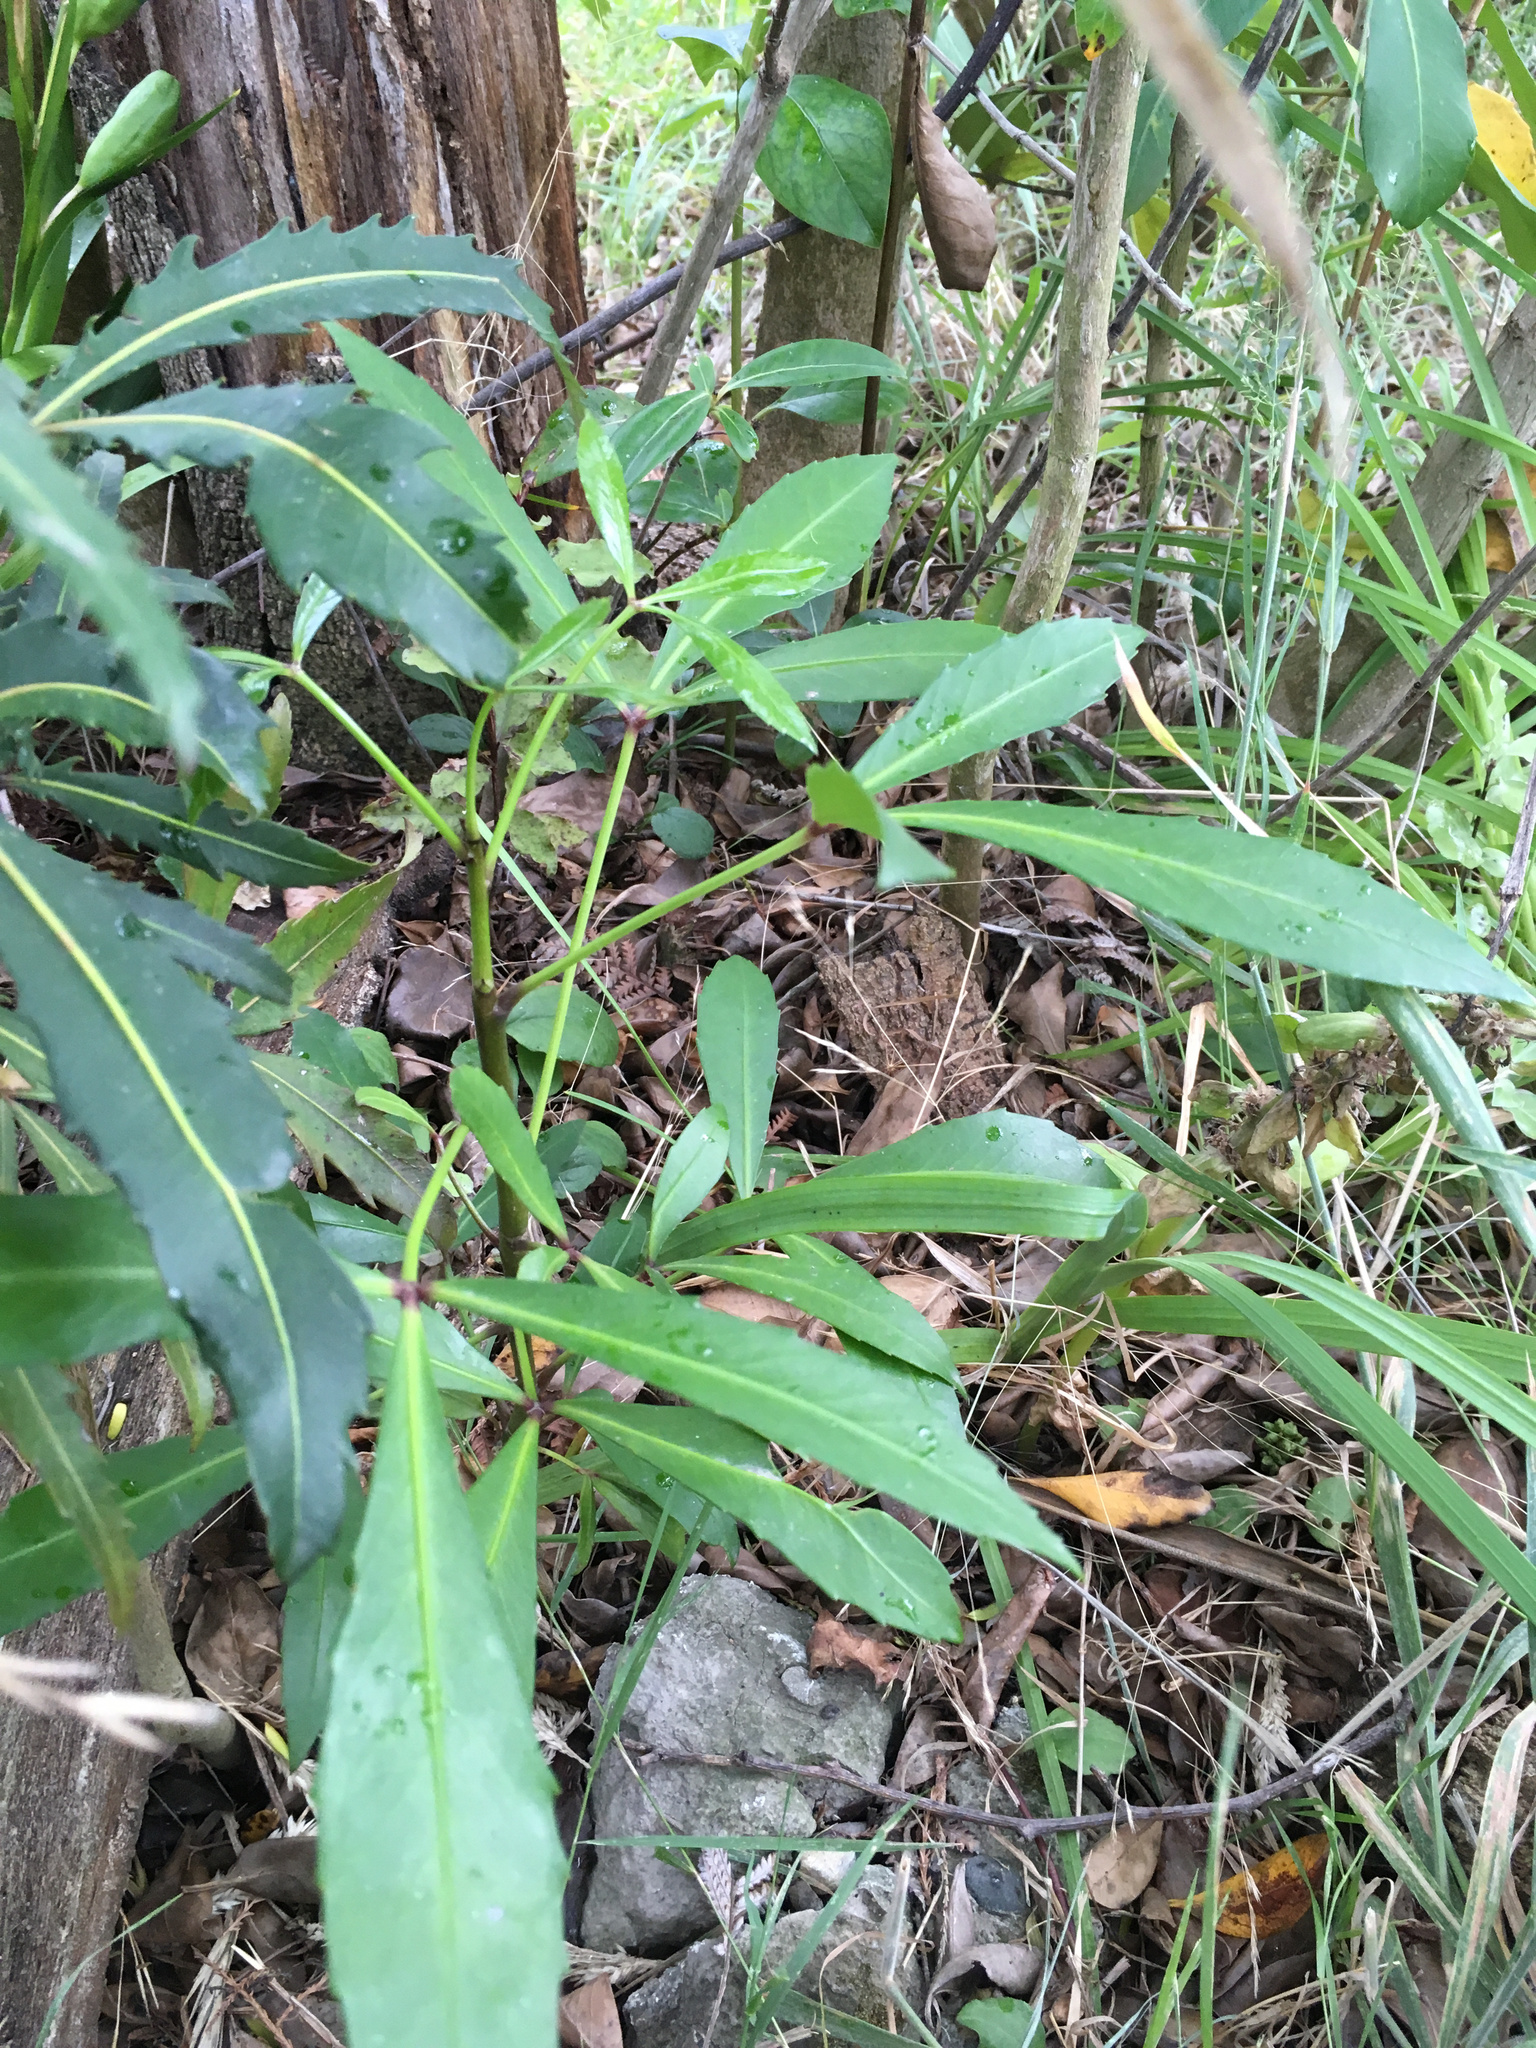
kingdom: Plantae
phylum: Tracheophyta
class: Magnoliopsida
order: Apiales
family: Araliaceae
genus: Pseudopanax
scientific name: Pseudopanax
